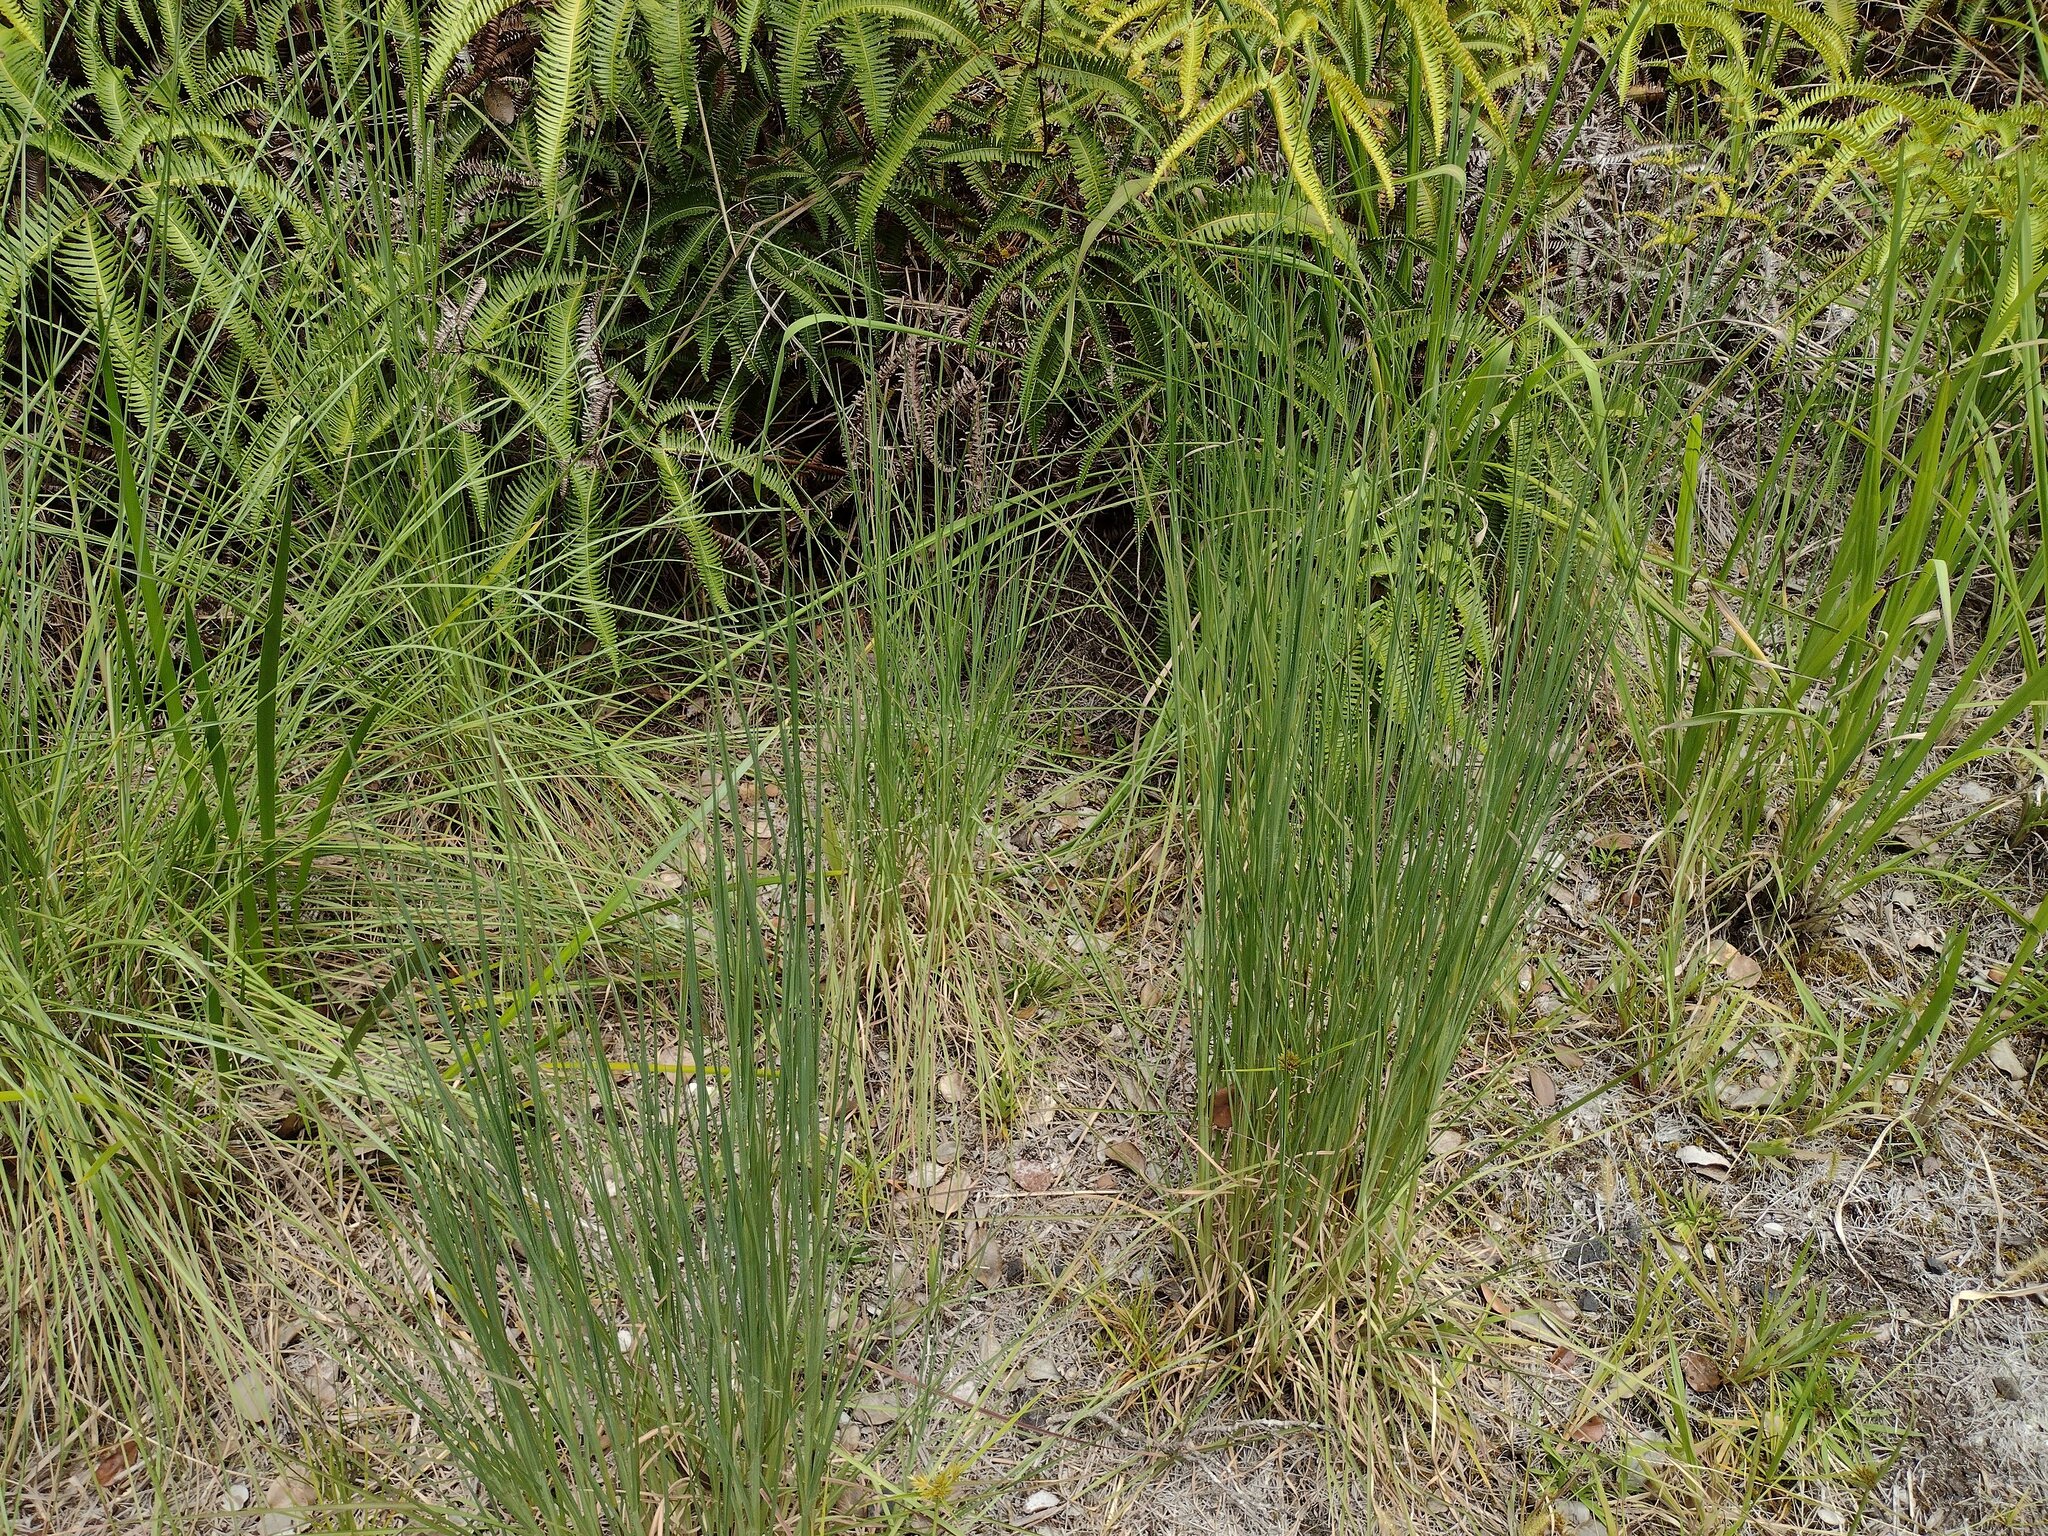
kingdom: Plantae
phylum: Tracheophyta
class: Liliopsida
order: Poales
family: Poaceae
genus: Andropogon
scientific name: Andropogon virginicus
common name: Broomsedge bluestem
